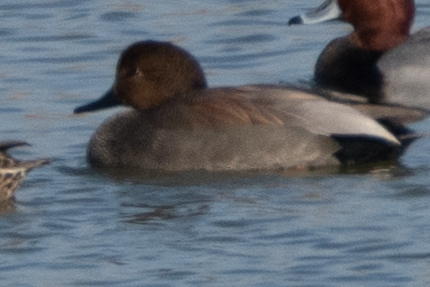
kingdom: Animalia
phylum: Chordata
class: Aves
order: Anseriformes
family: Anatidae
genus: Mareca
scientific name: Mareca strepera
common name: Gadwall
